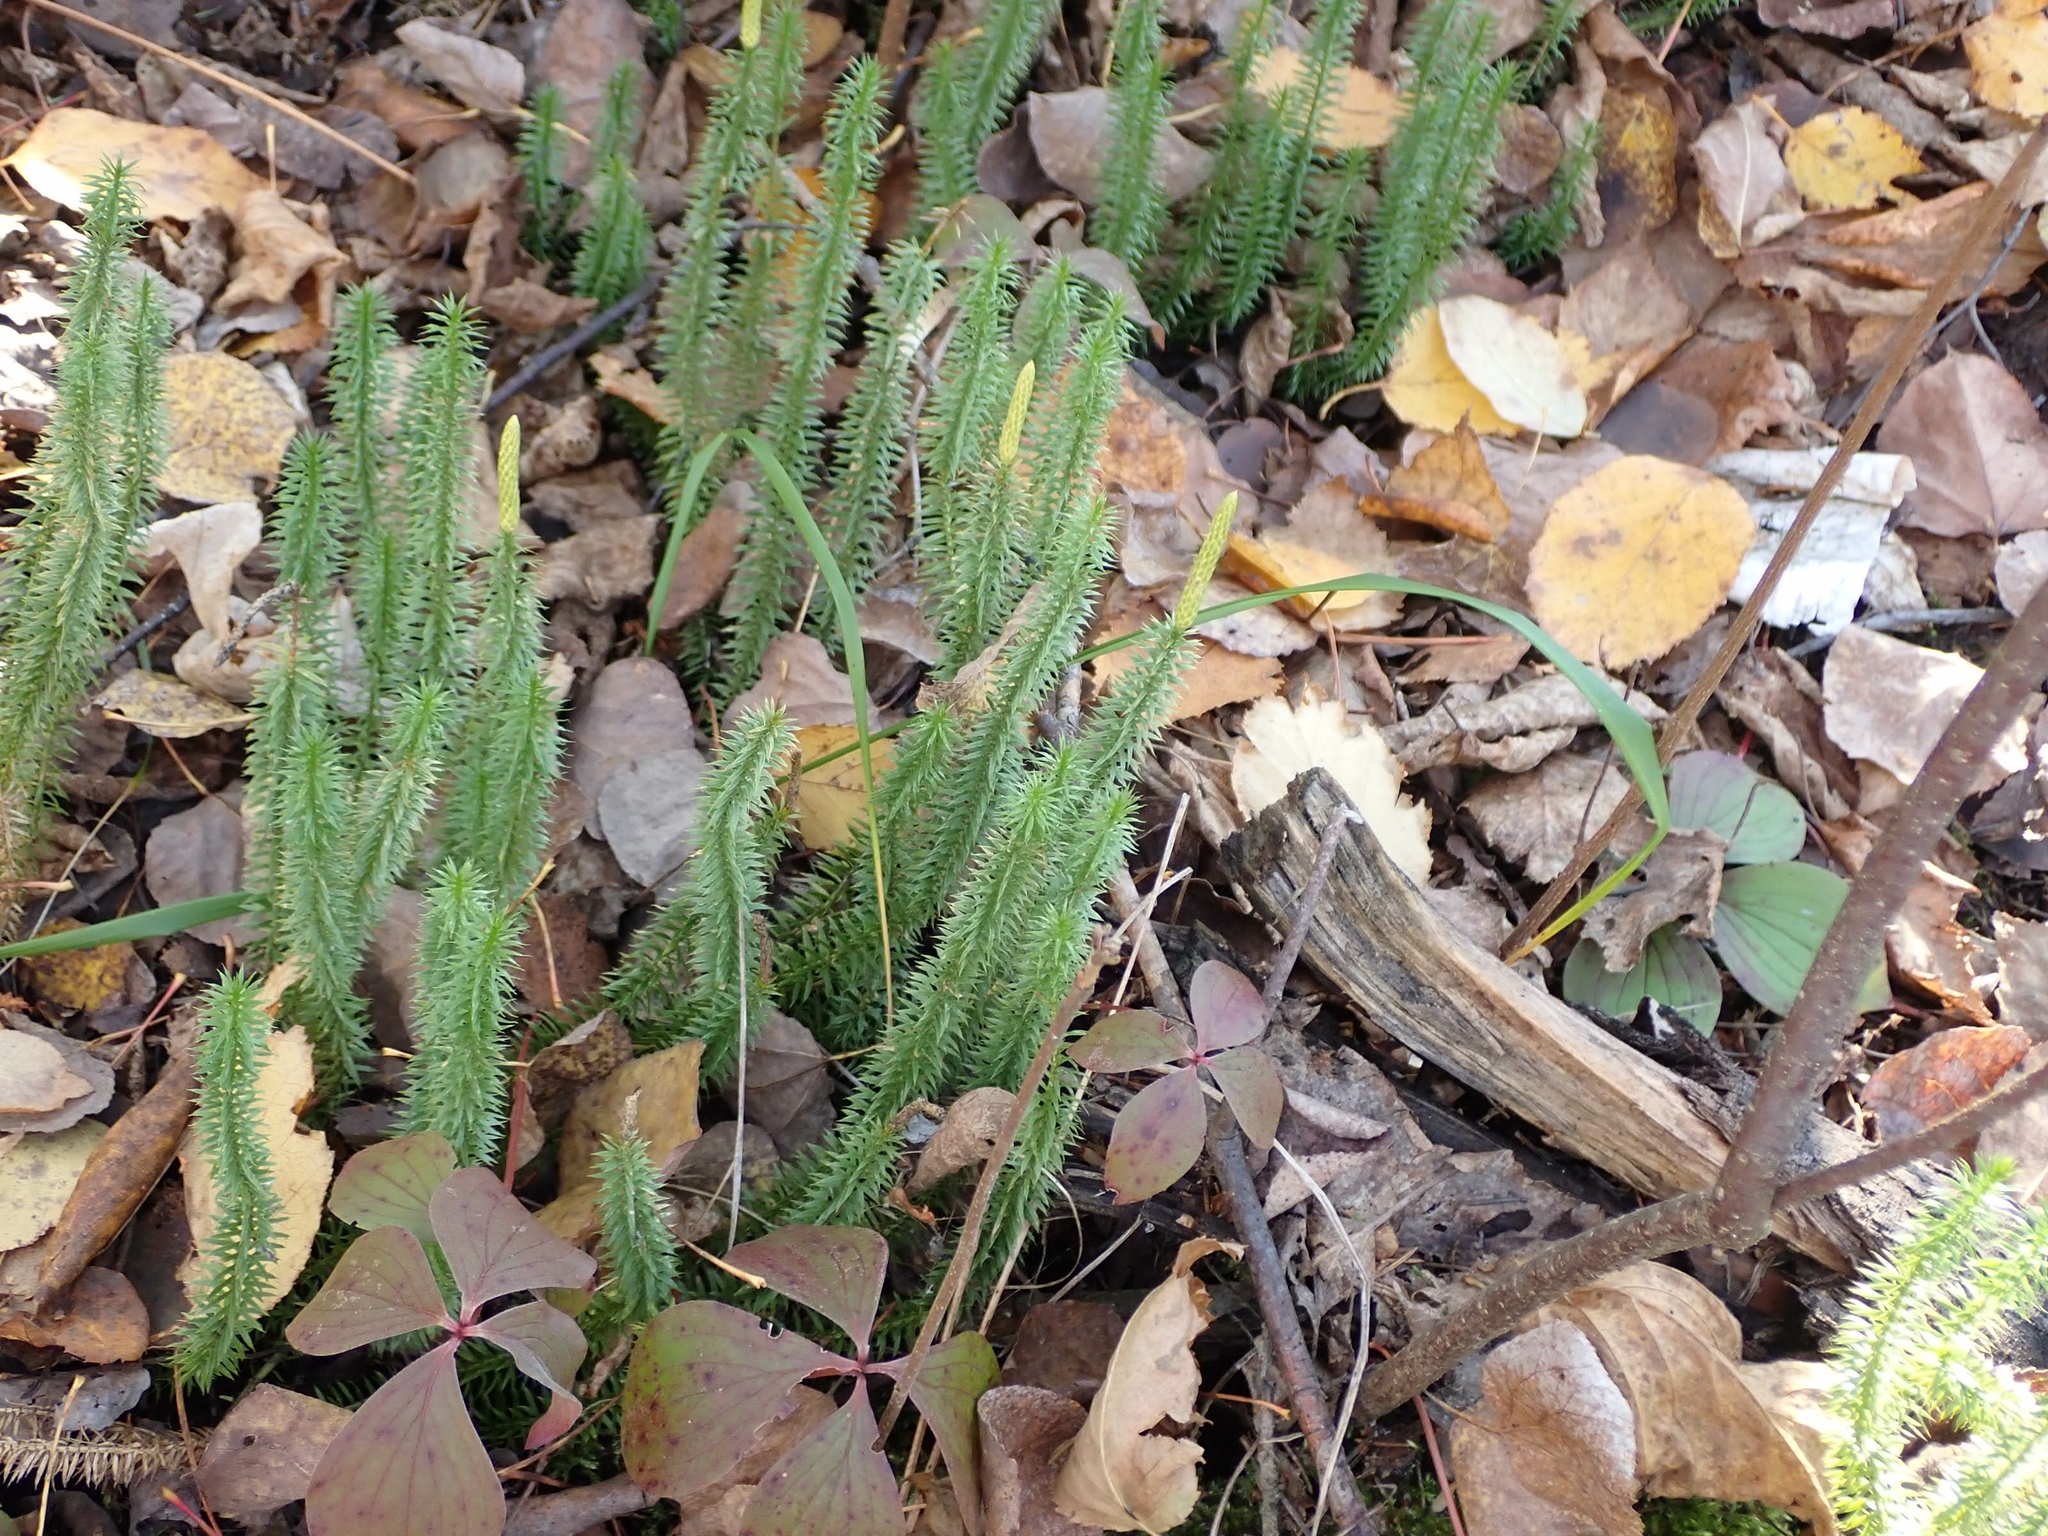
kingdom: Plantae
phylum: Tracheophyta
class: Lycopodiopsida
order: Lycopodiales
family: Lycopodiaceae
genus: Spinulum
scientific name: Spinulum annotinum
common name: Interrupted club-moss
